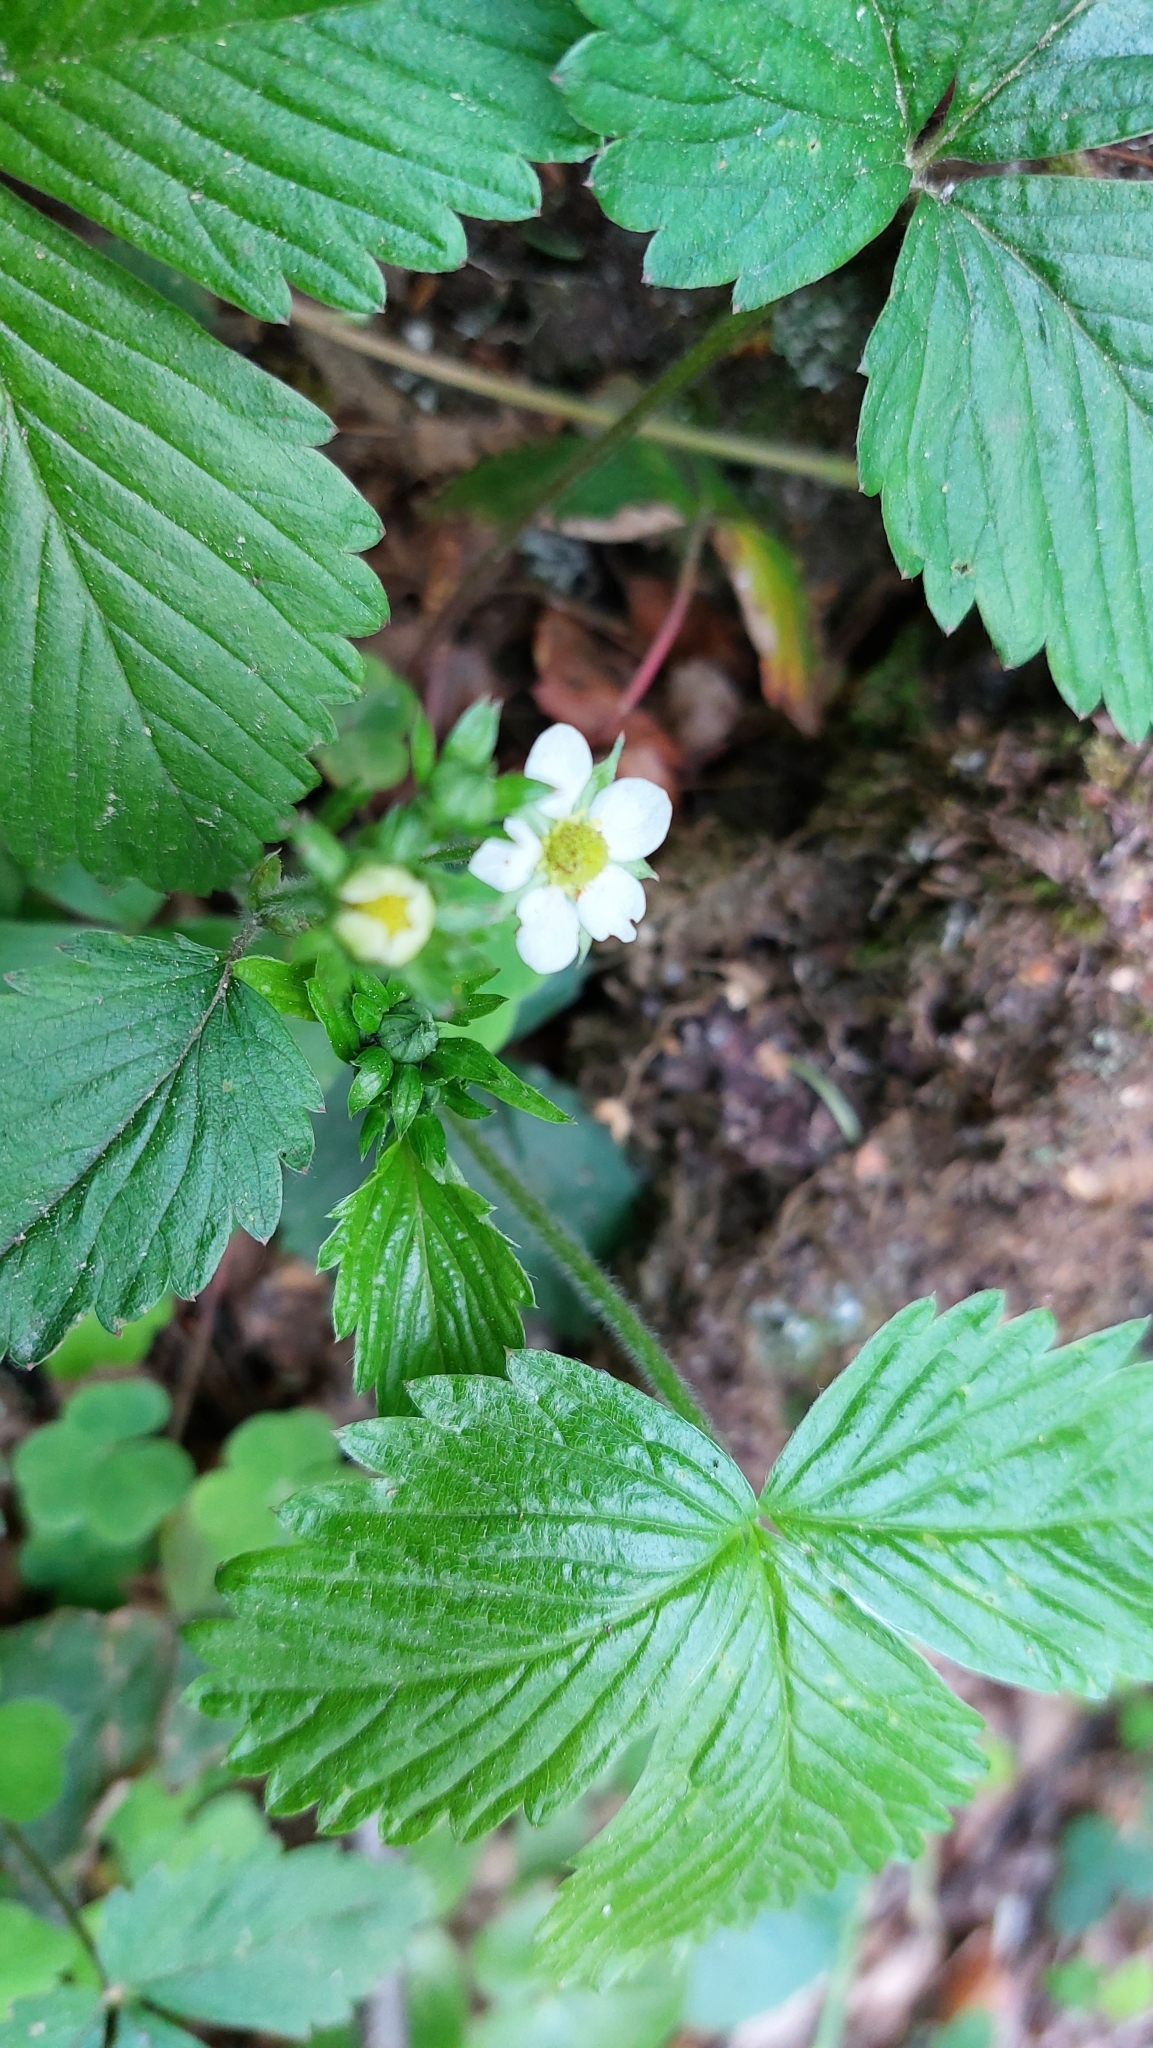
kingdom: Plantae
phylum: Tracheophyta
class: Magnoliopsida
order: Rosales
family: Rosaceae
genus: Fragaria
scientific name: Fragaria vesca
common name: Wild strawberry
